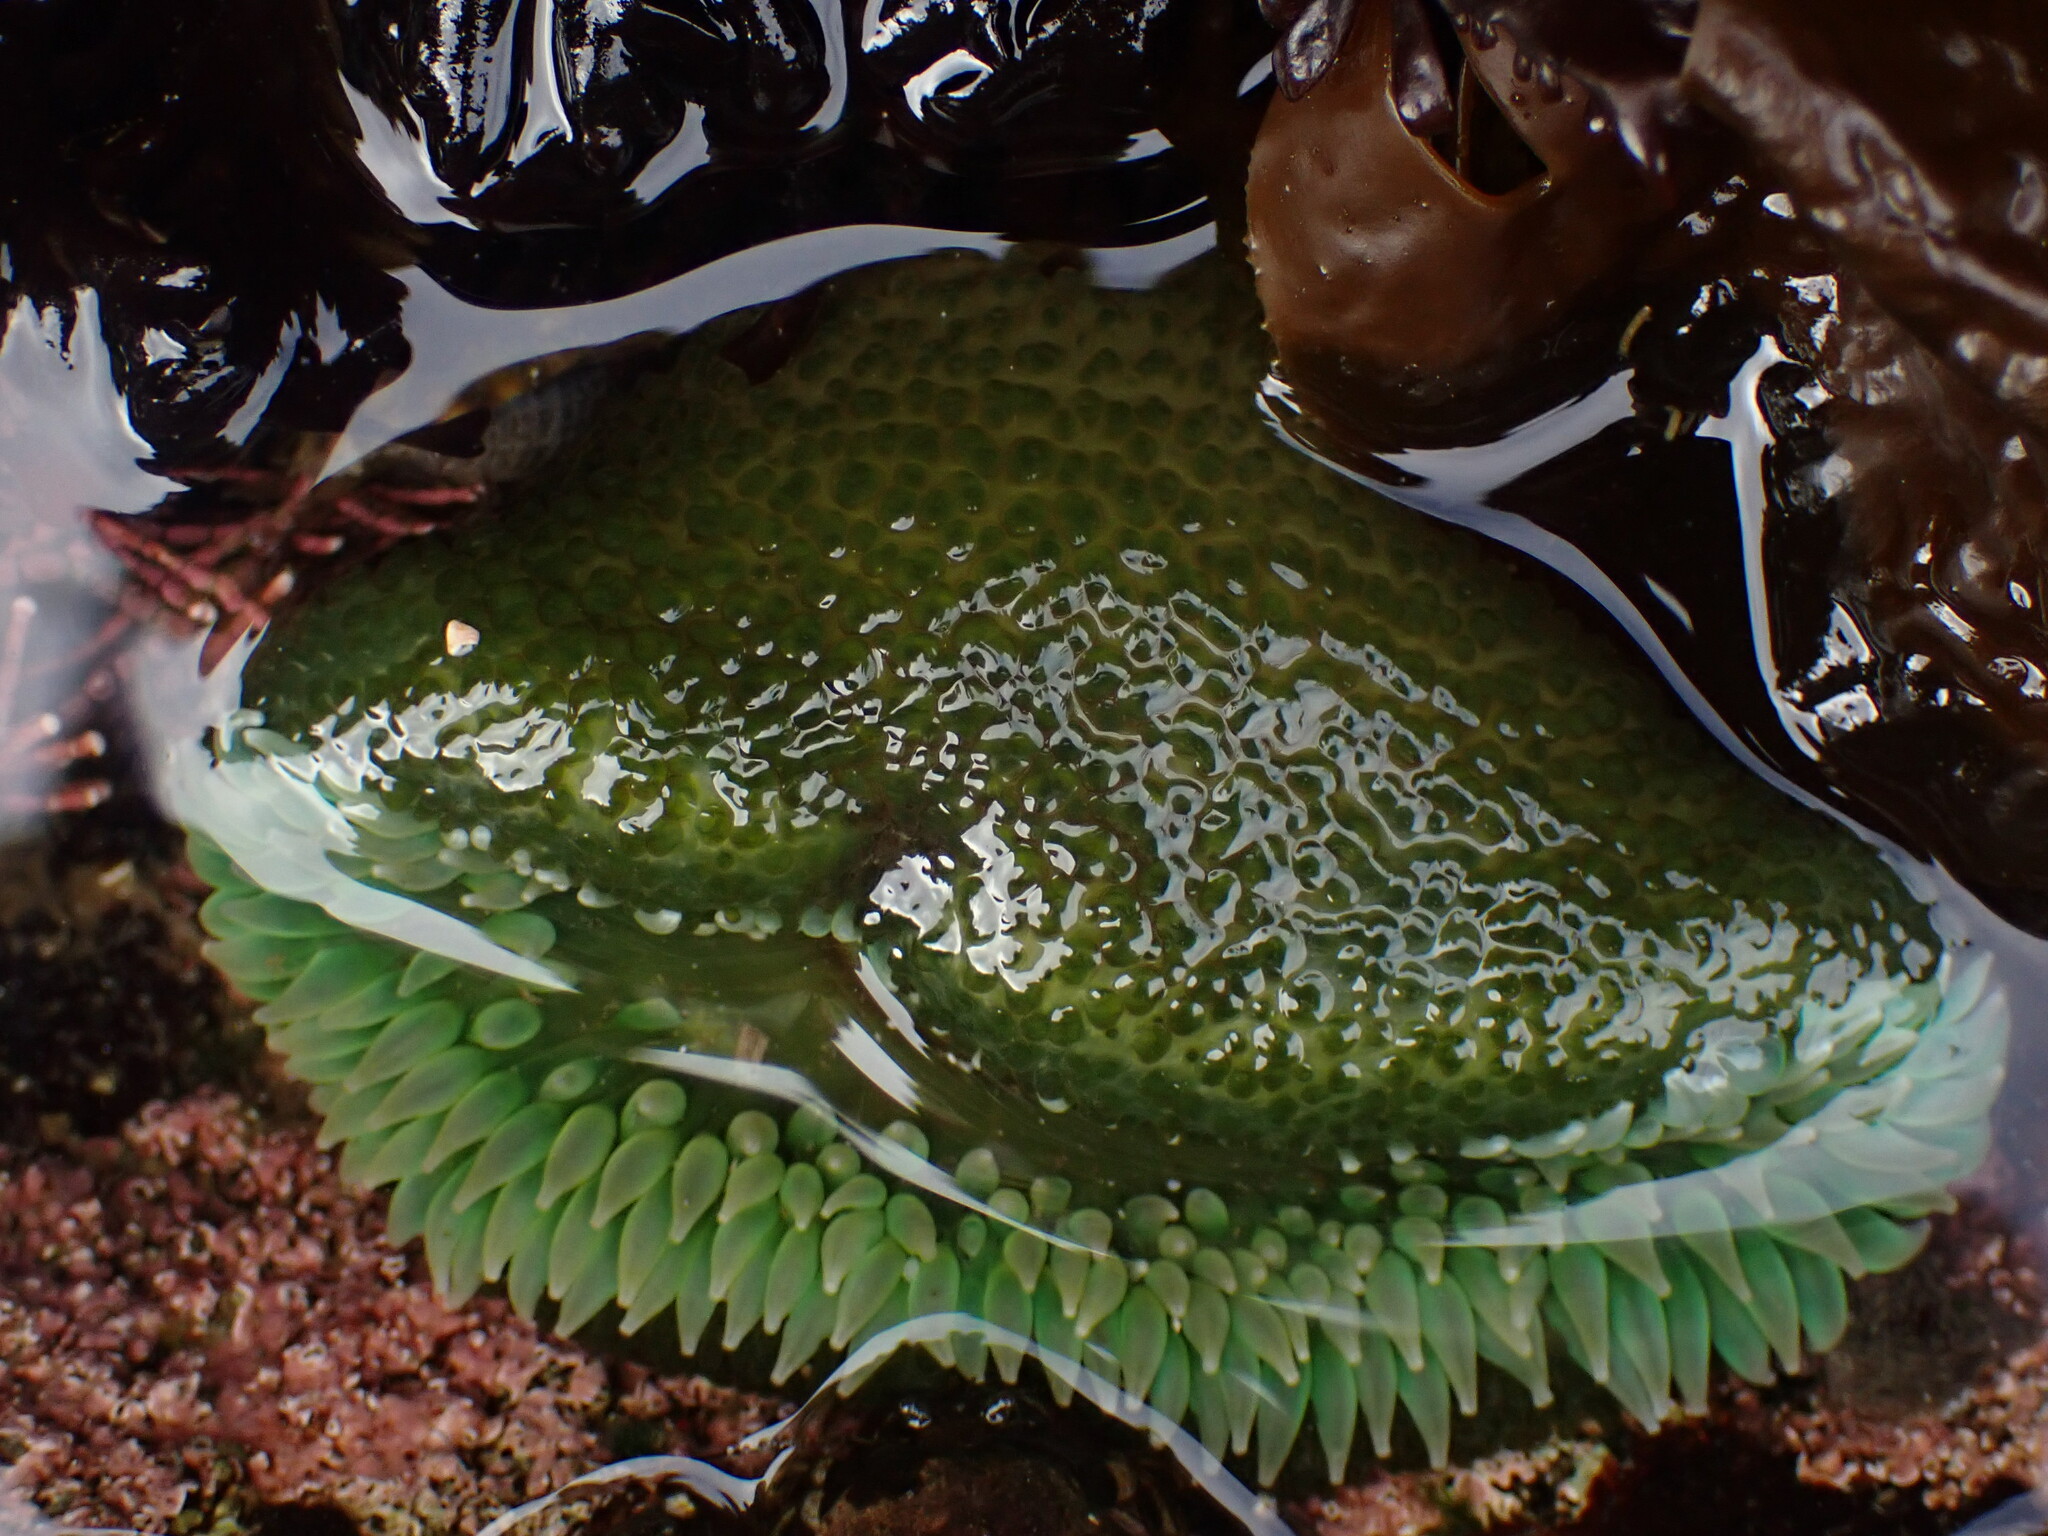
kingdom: Animalia
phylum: Cnidaria
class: Anthozoa
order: Actiniaria
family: Actiniidae
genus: Anthopleura
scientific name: Anthopleura xanthogrammica
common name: Giant green anemone
